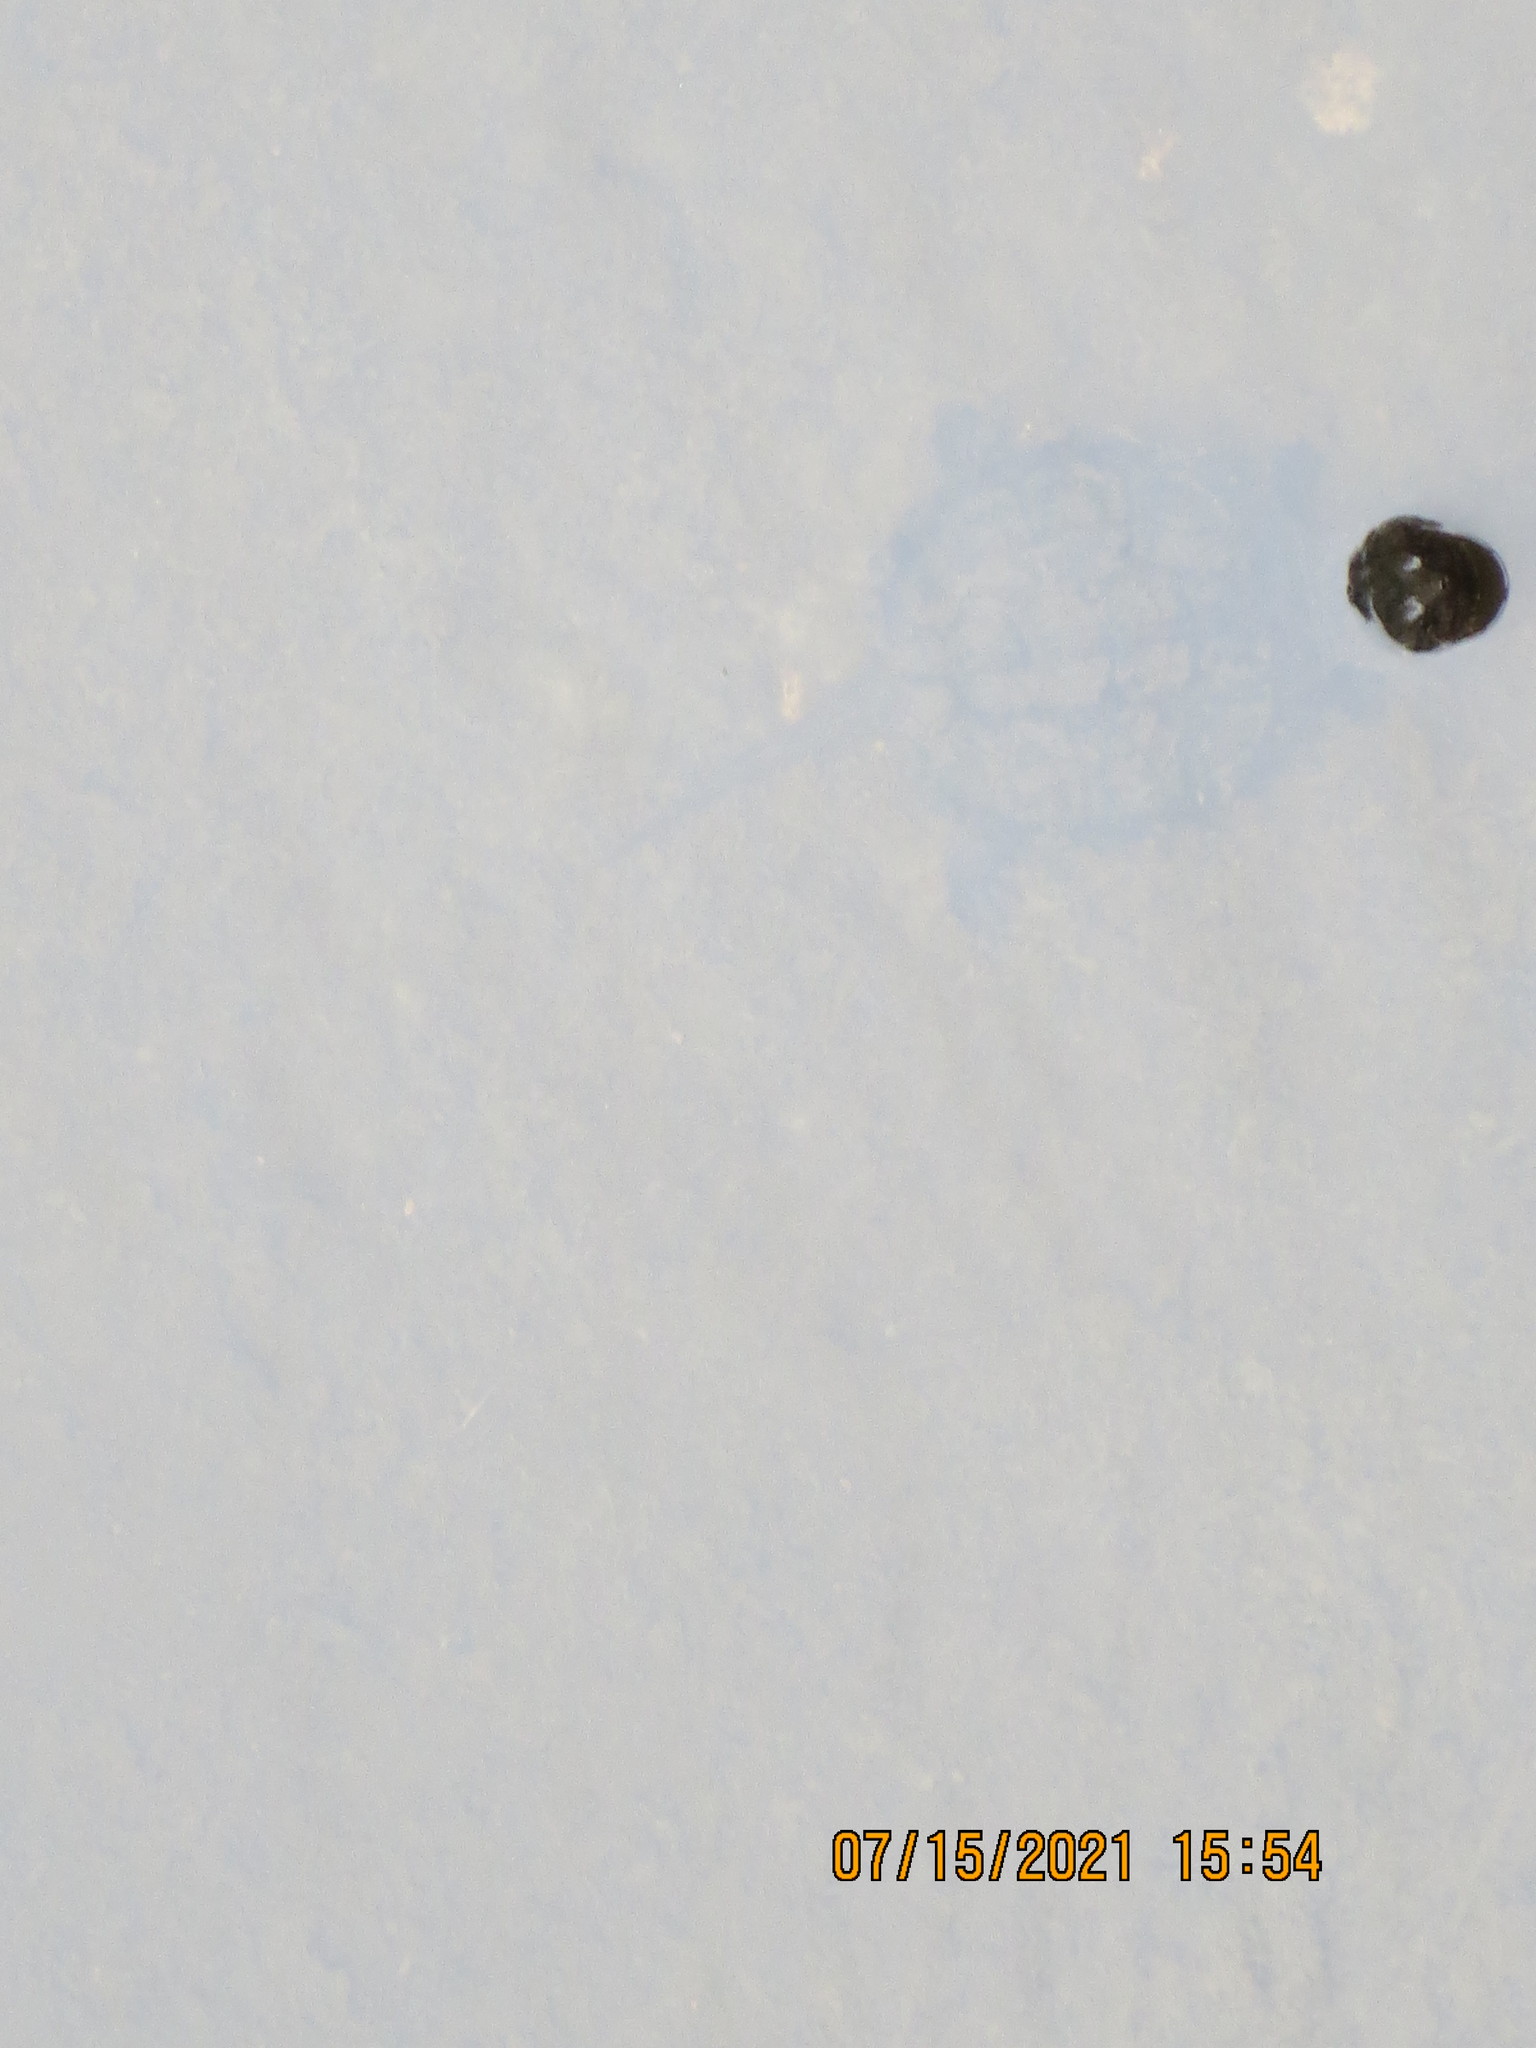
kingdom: Animalia
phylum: Chordata
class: Testudines
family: Chelydridae
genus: Chelydra
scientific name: Chelydra serpentina
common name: Common snapping turtle
